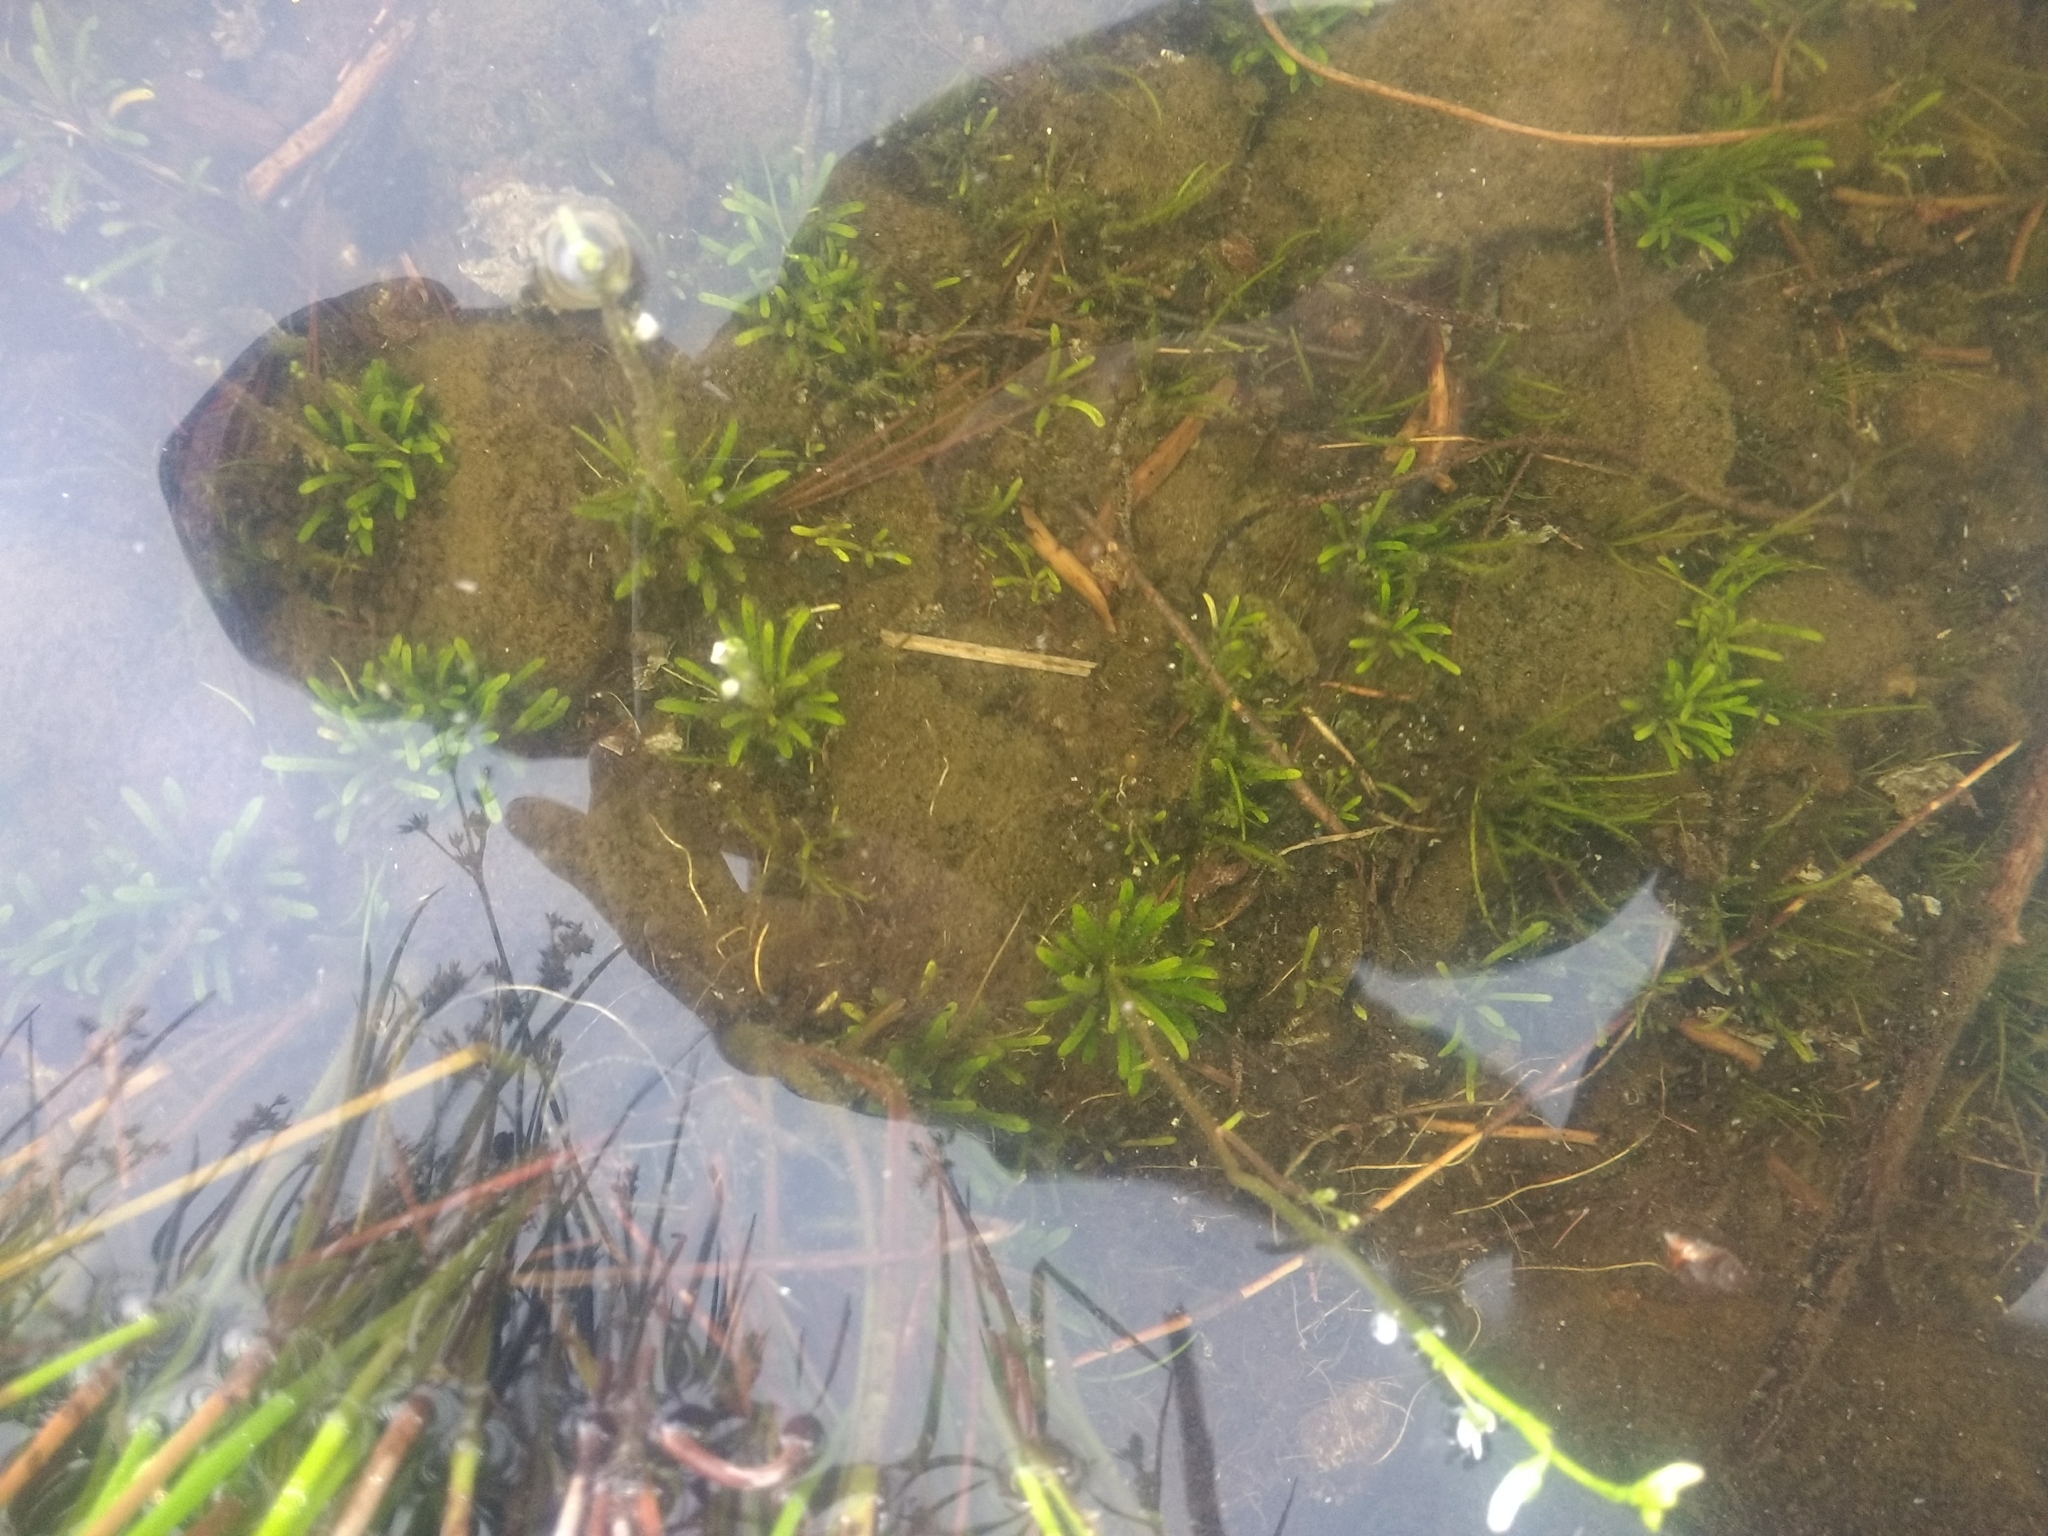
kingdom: Plantae
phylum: Tracheophyta
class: Magnoliopsida
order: Asterales
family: Campanulaceae
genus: Lobelia
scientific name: Lobelia dortmanna
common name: Water lobelia
